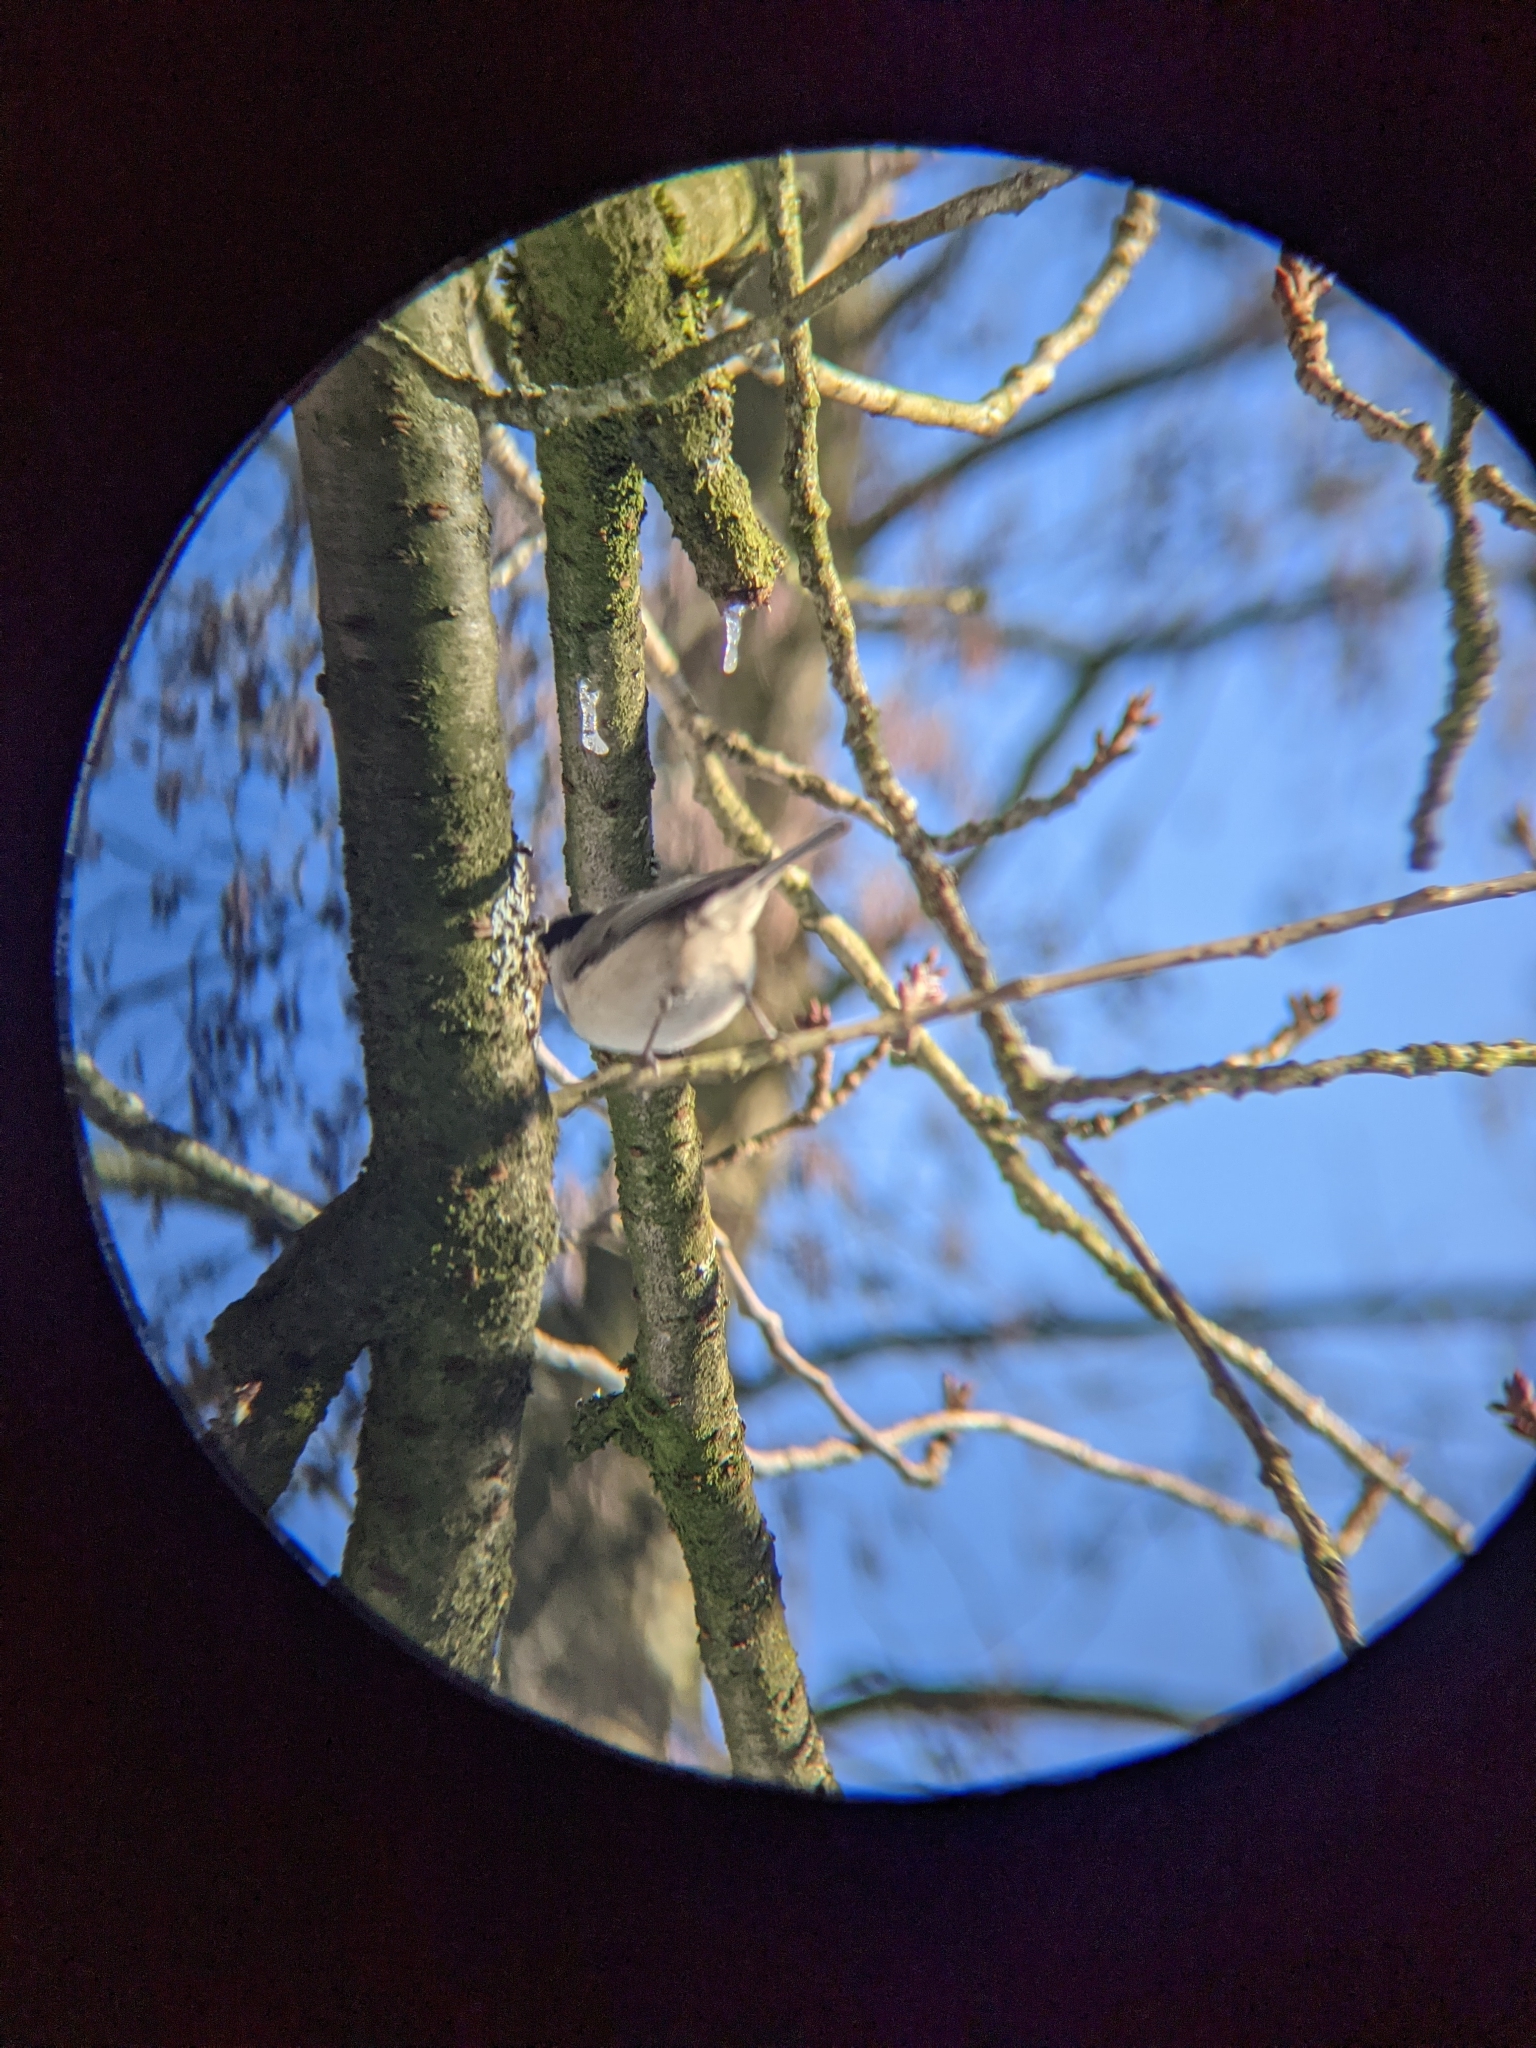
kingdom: Animalia
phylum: Chordata
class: Aves
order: Passeriformes
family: Paridae
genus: Poecile
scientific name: Poecile palustris
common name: Marsh tit
